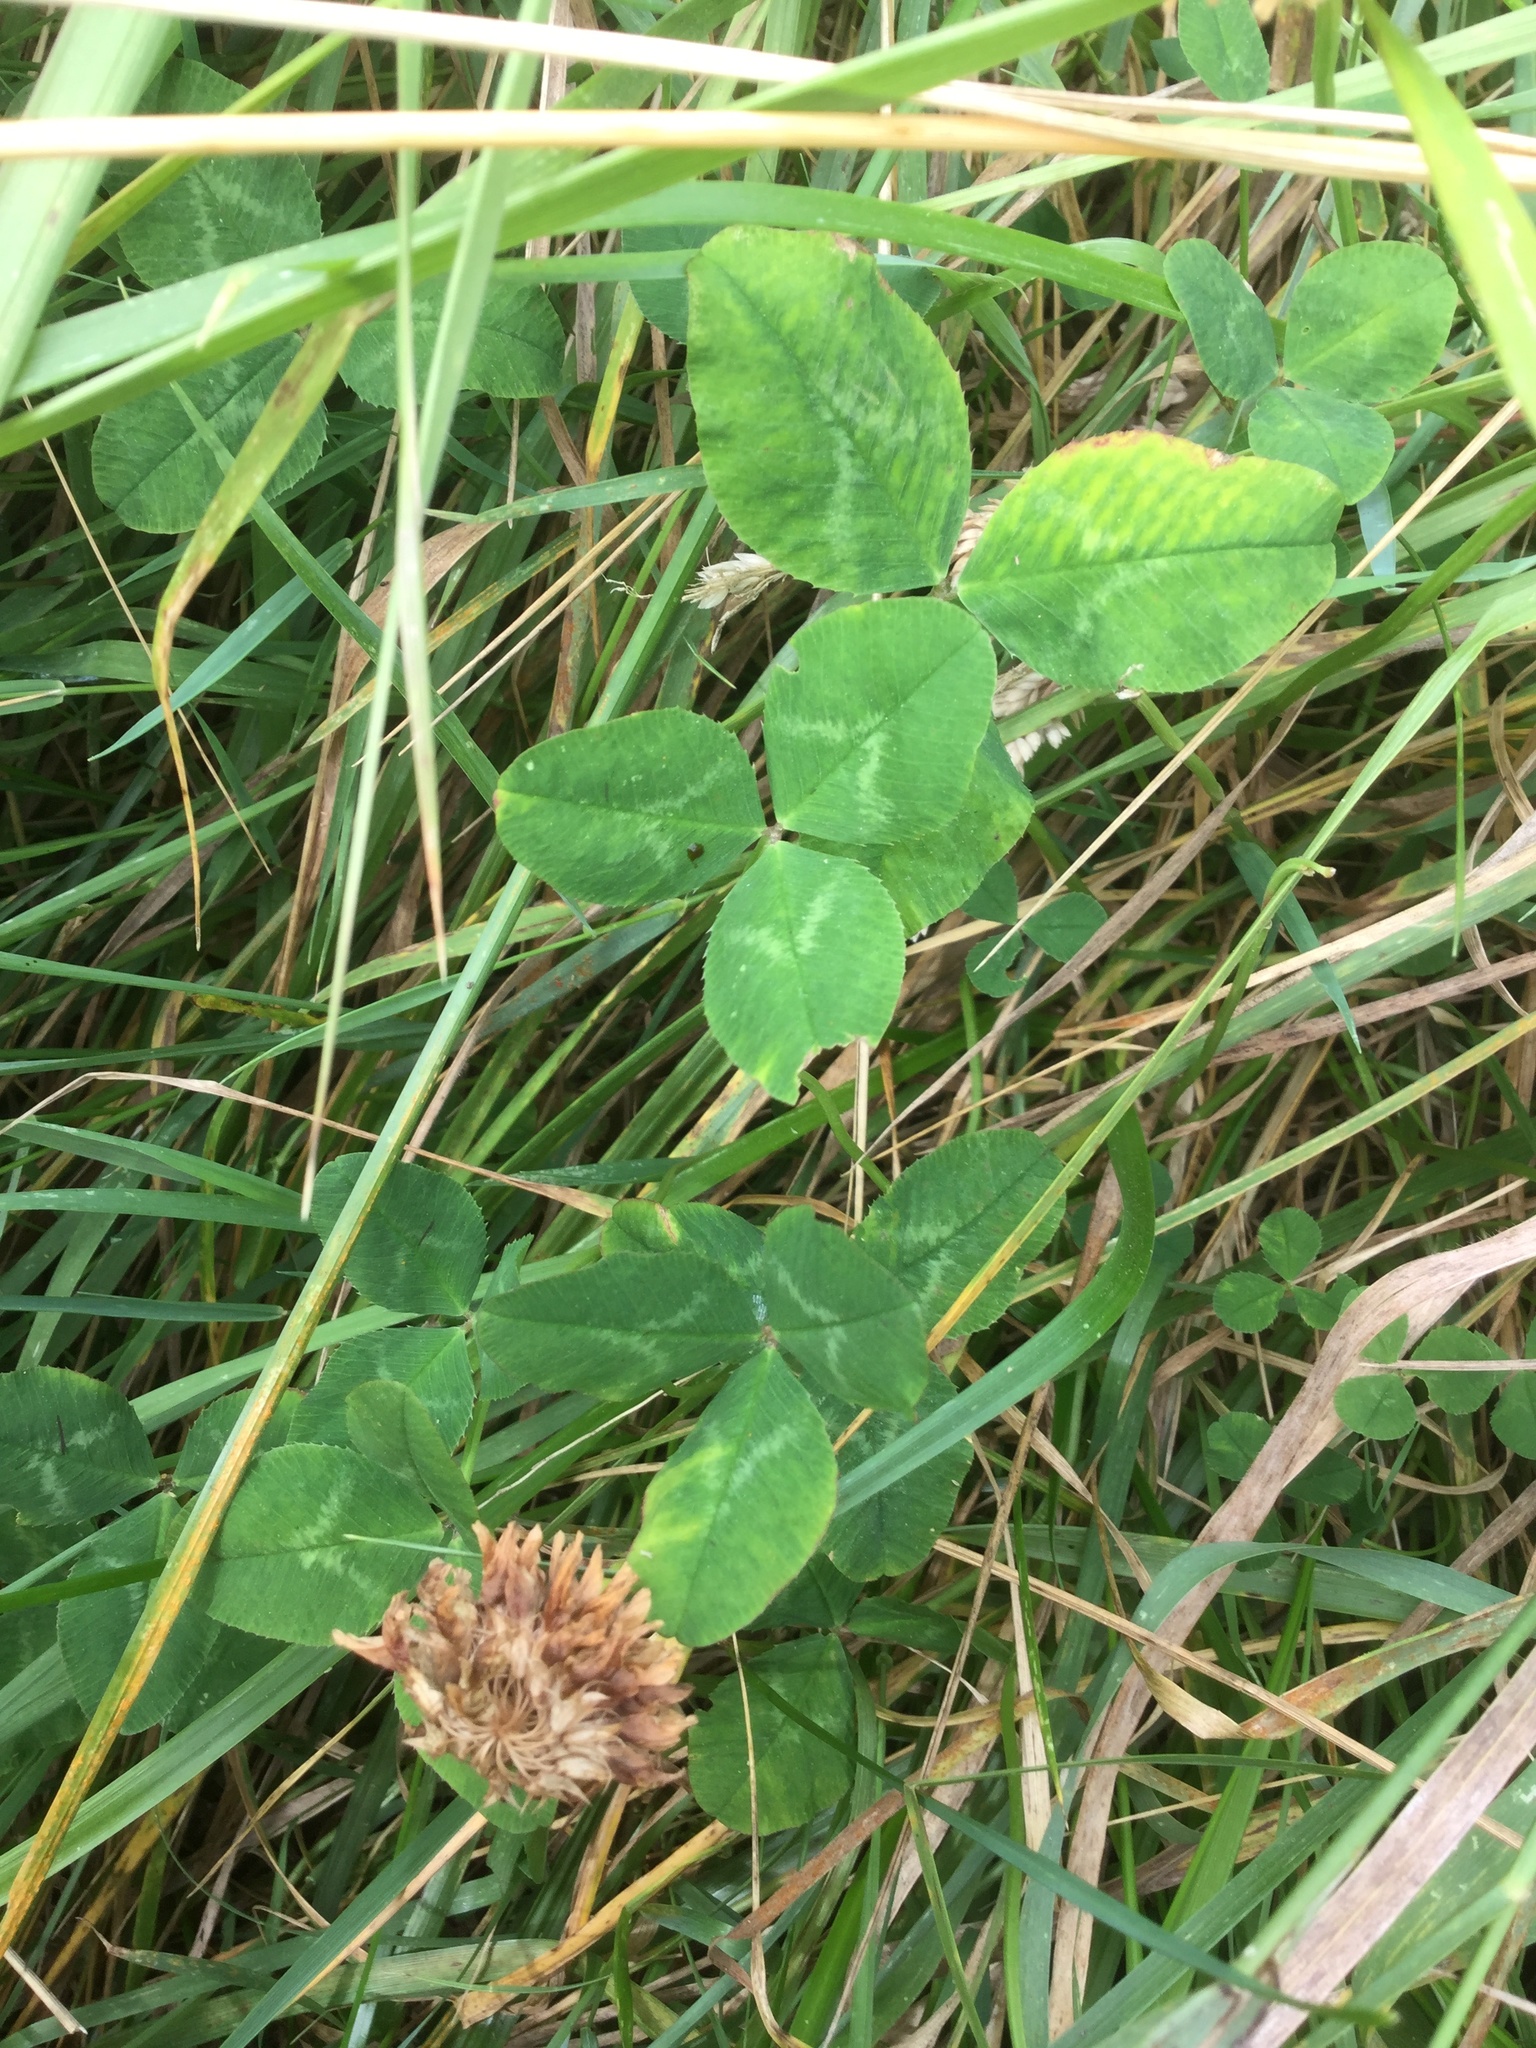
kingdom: Plantae
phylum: Tracheophyta
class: Magnoliopsida
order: Fabales
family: Fabaceae
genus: Trifolium
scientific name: Trifolium repens
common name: White clover
